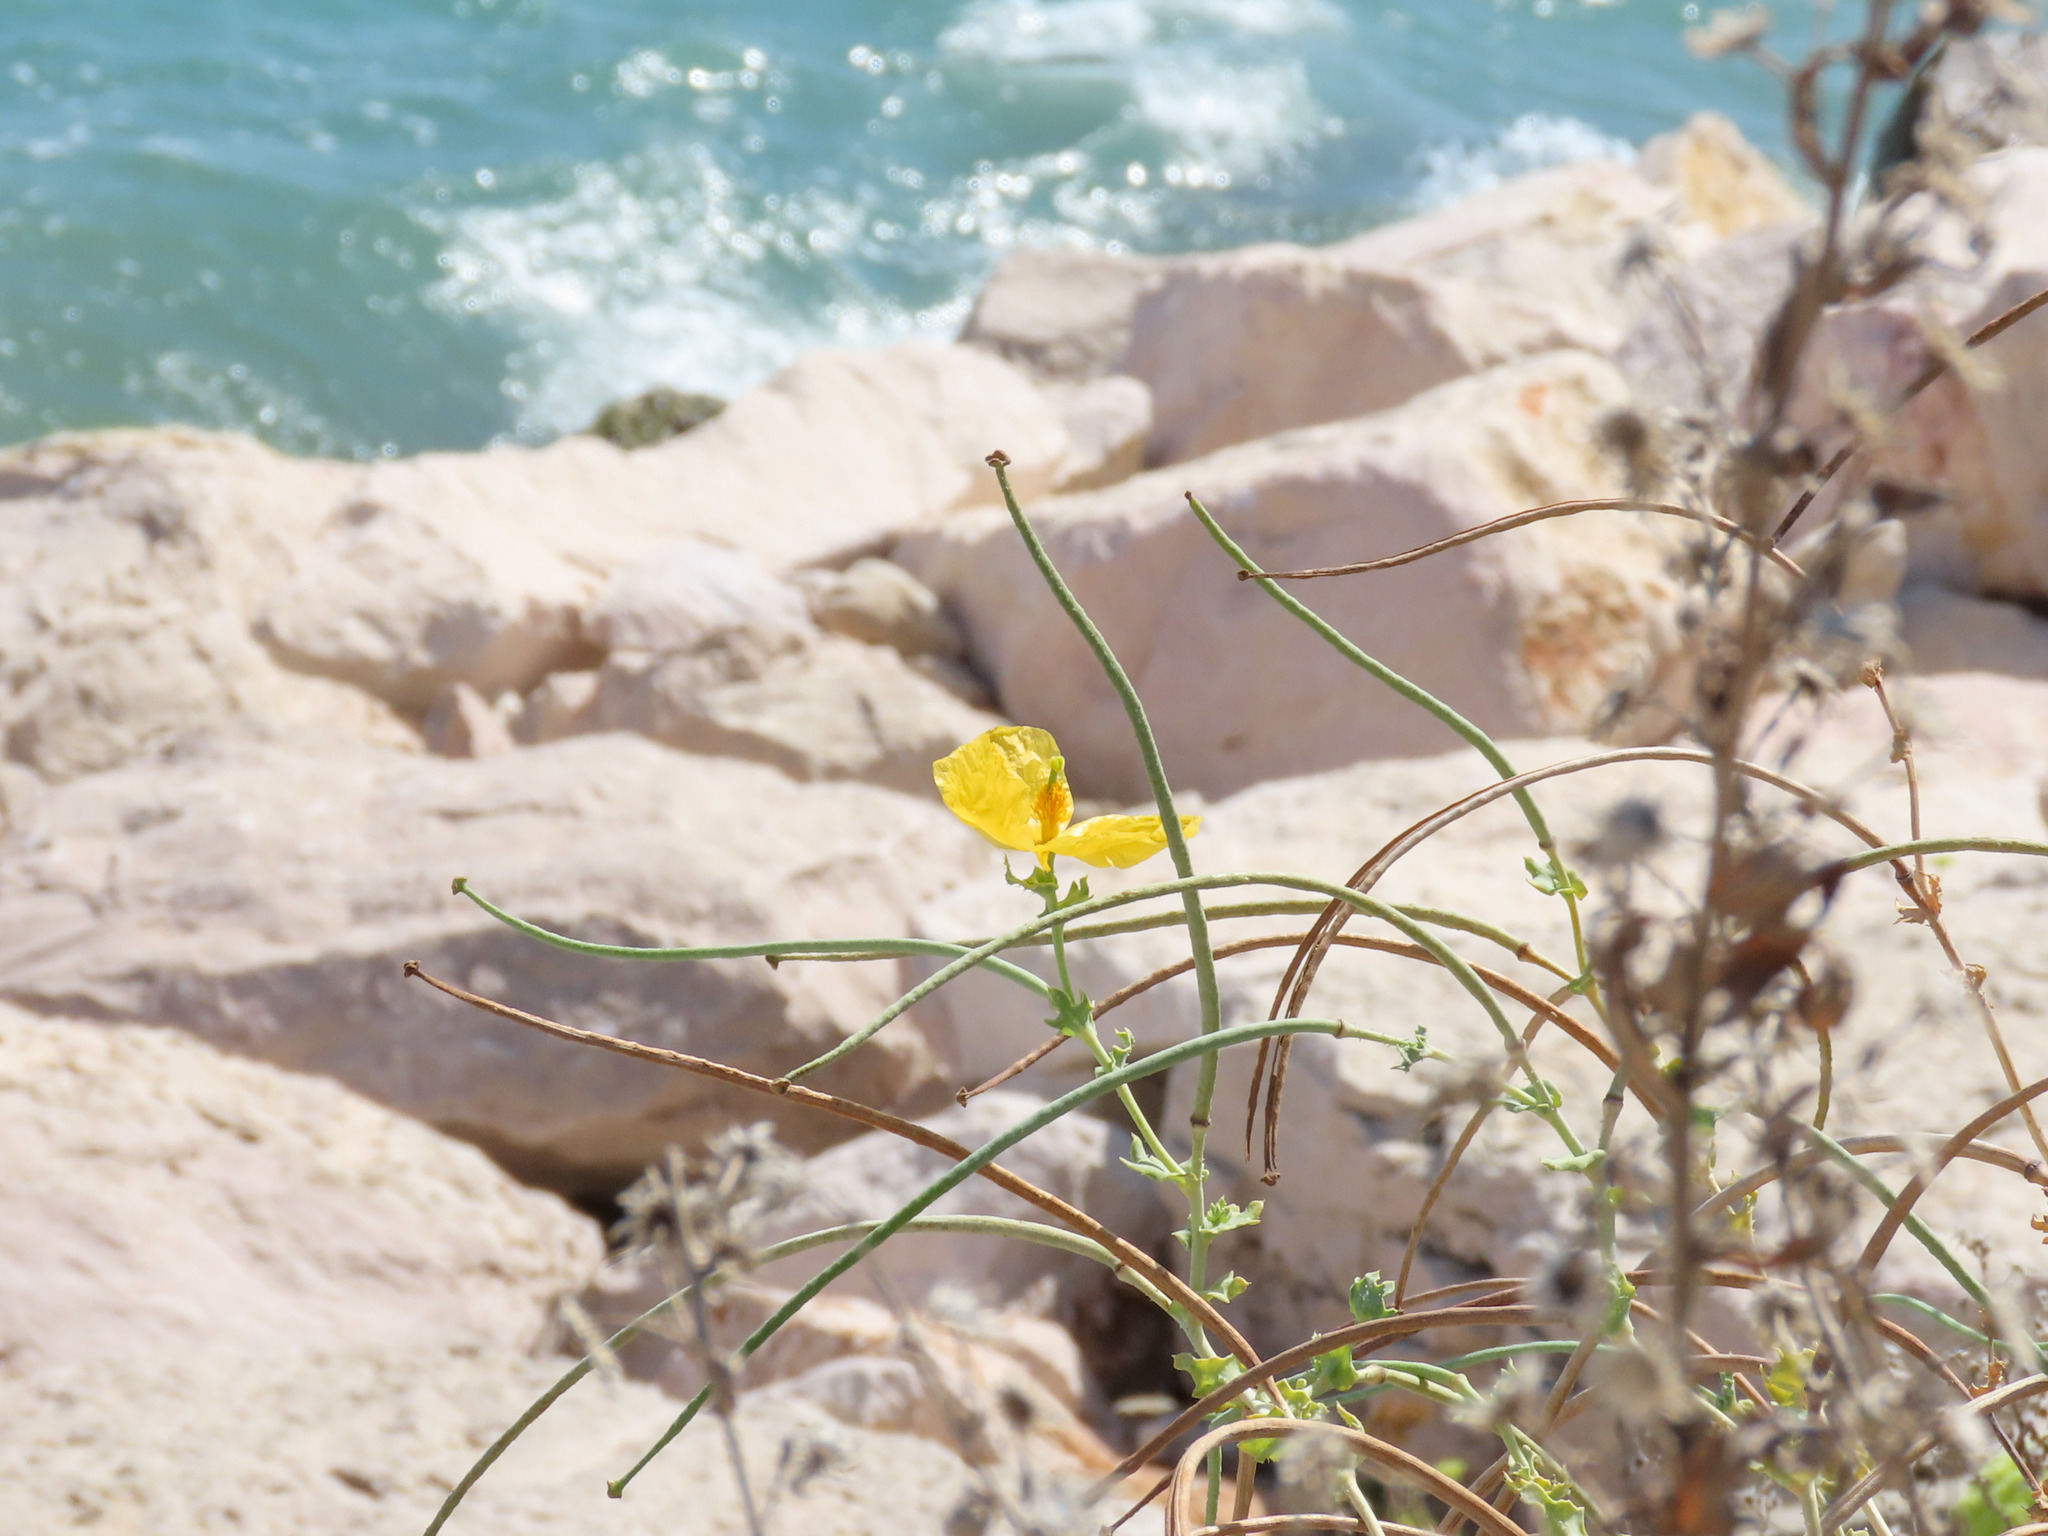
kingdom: Plantae
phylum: Tracheophyta
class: Magnoliopsida
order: Ranunculales
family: Papaveraceae
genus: Glaucium
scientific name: Glaucium flavum
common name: Yellow horned-poppy
